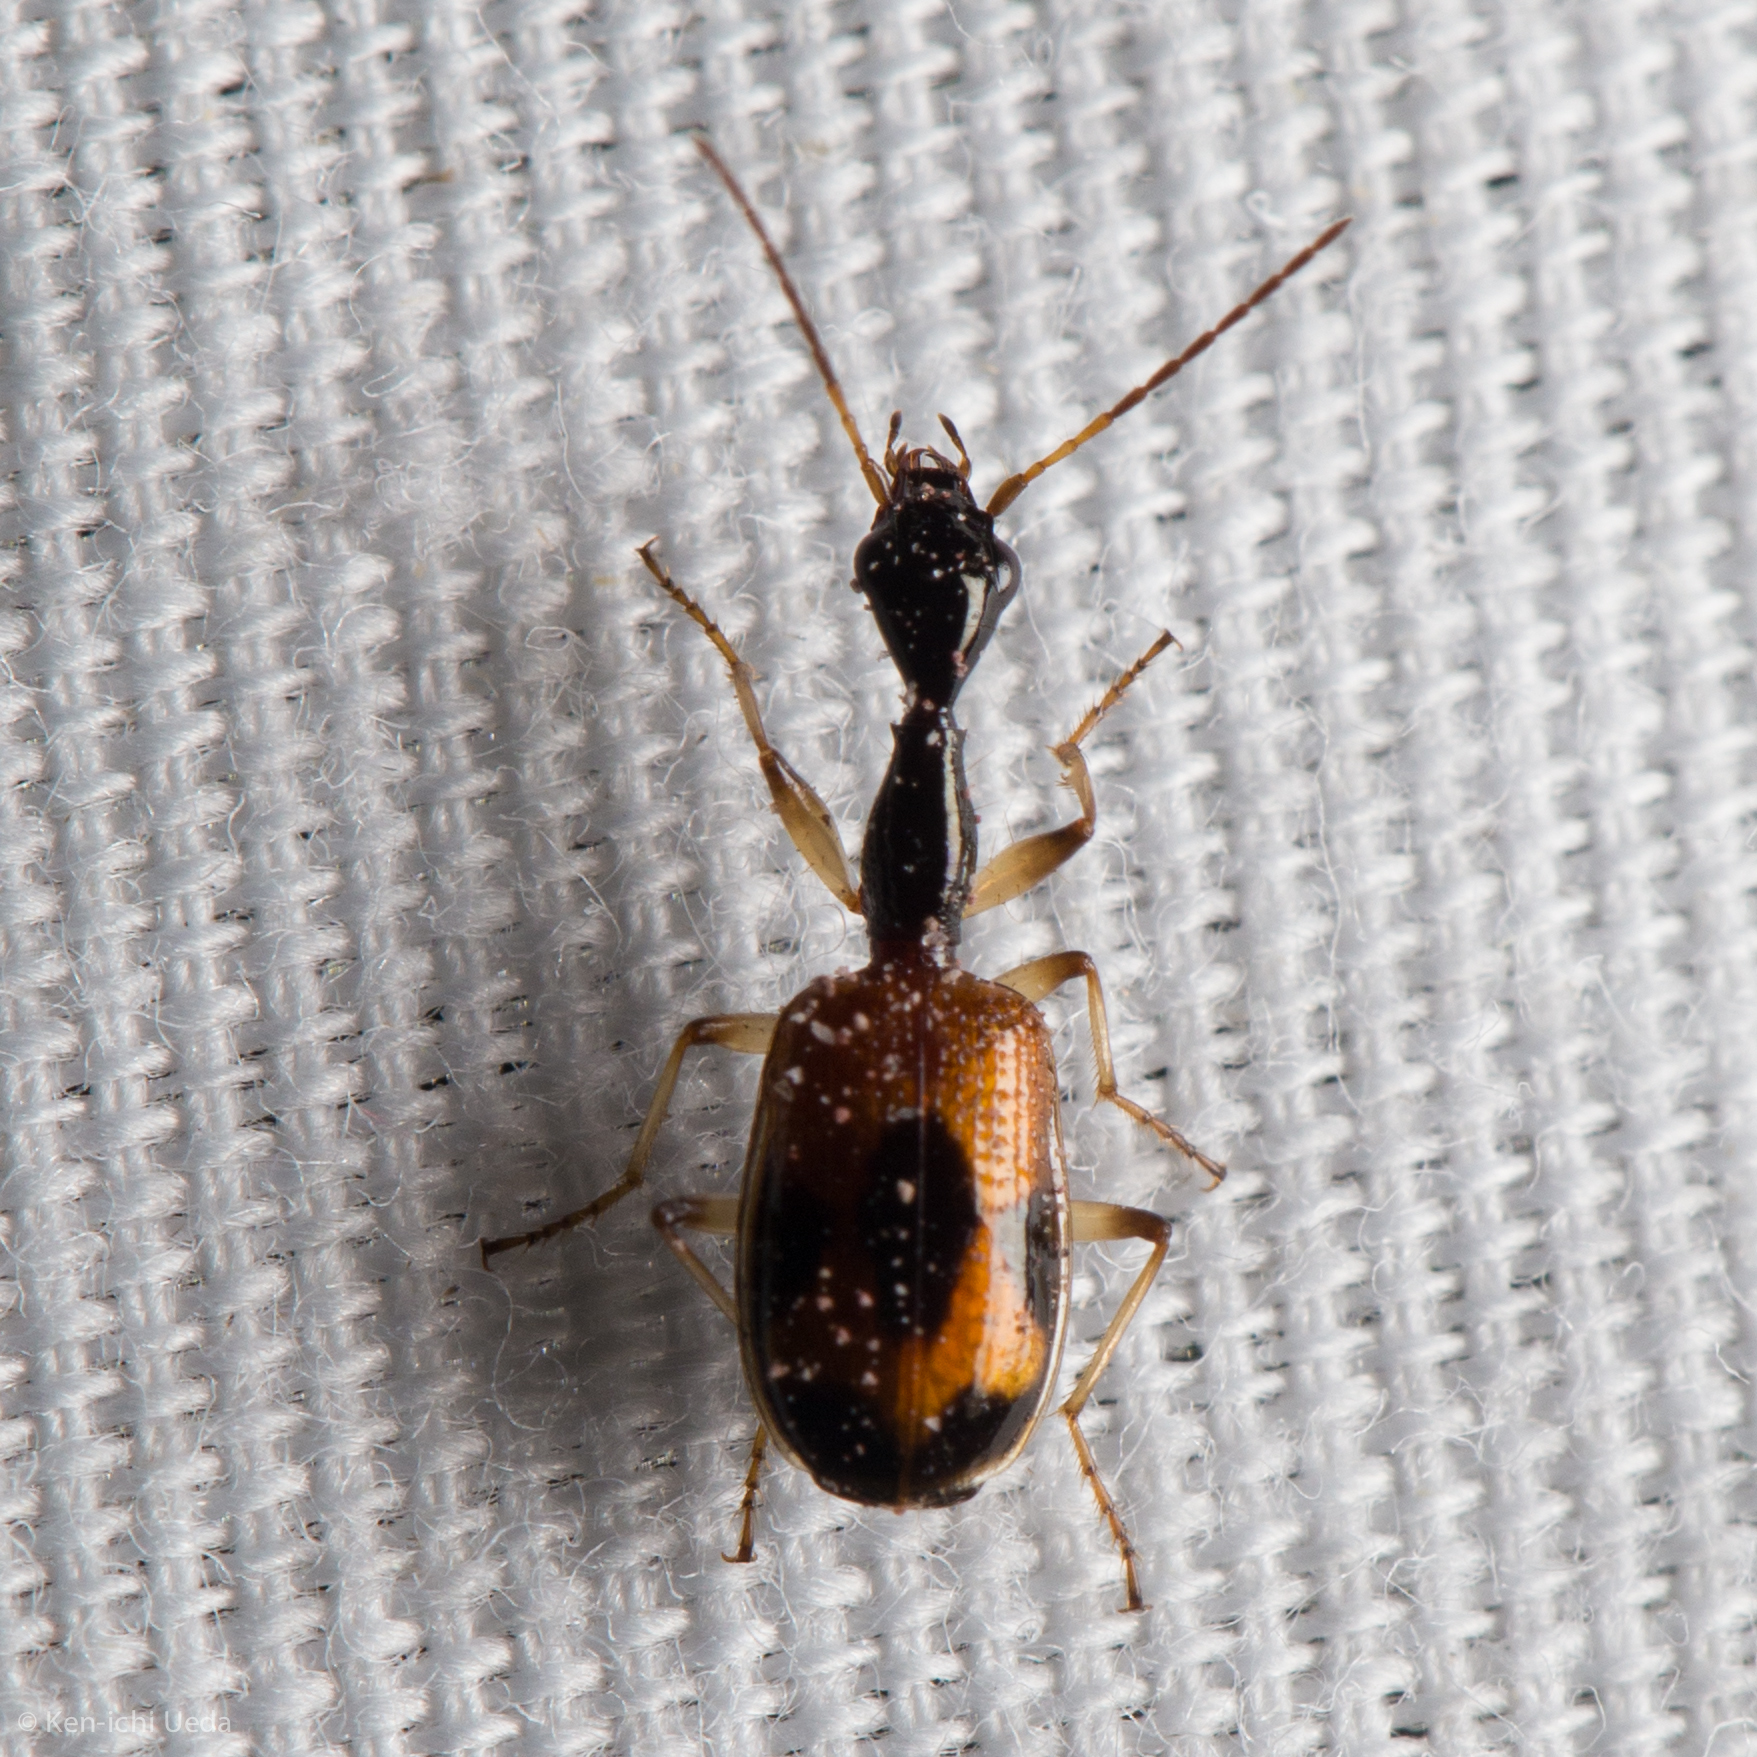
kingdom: Animalia
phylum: Arthropoda
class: Insecta
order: Coleoptera
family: Carabidae
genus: Colliuris
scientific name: Colliuris pensylvanica
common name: Long-necked ground beetle
